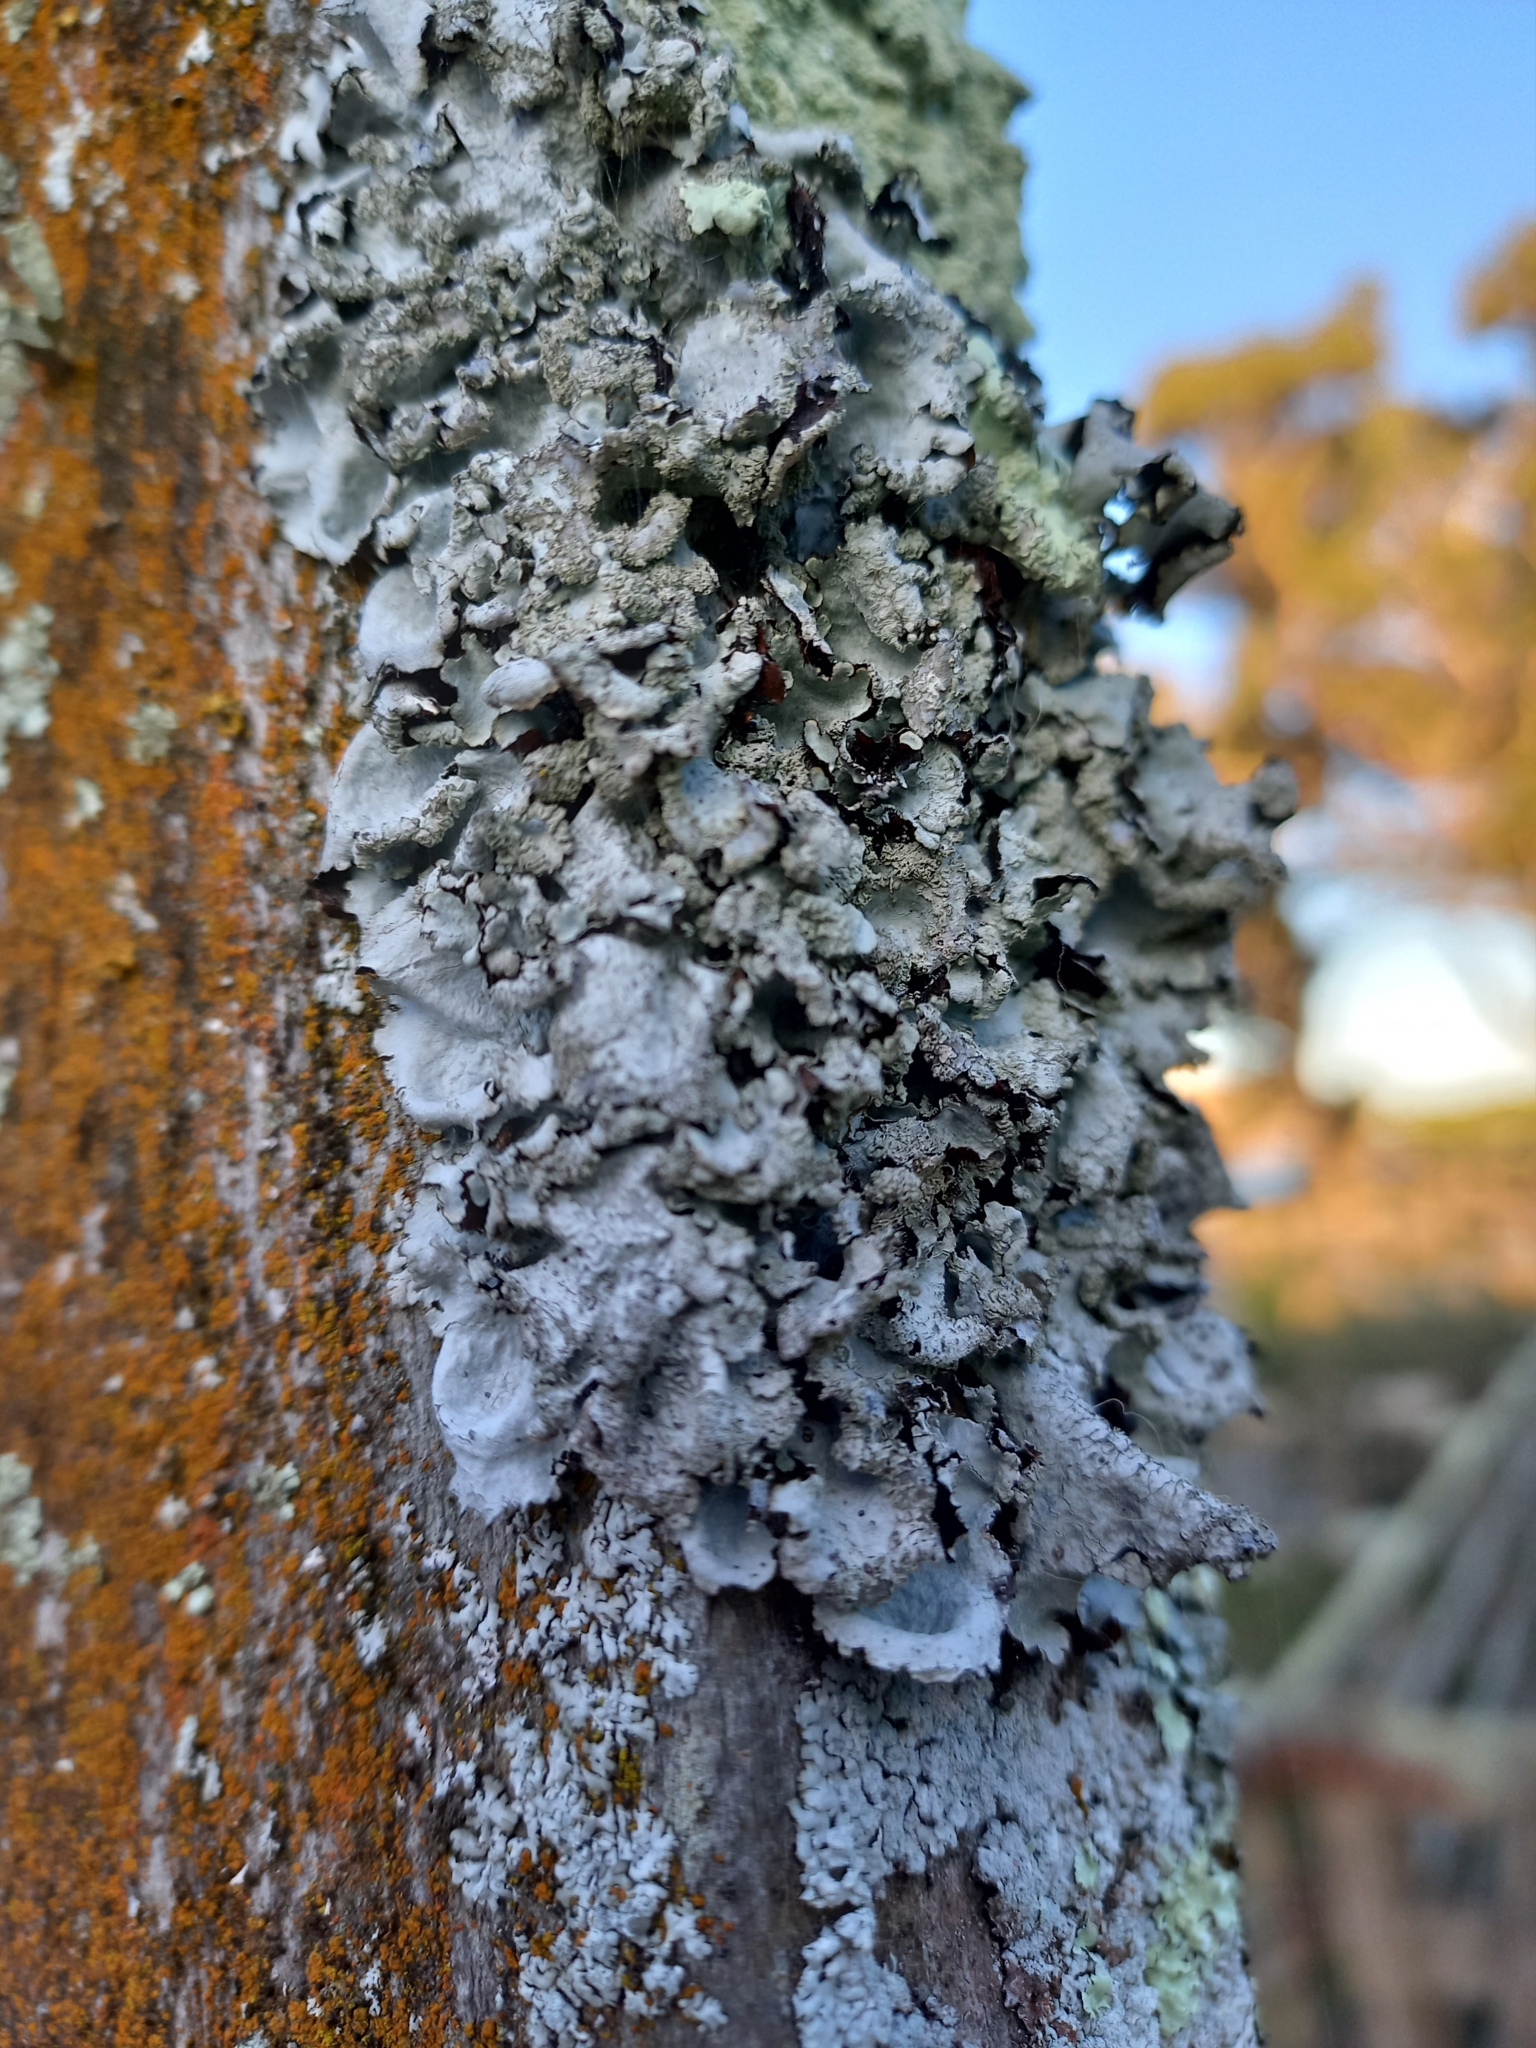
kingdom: Fungi
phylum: Ascomycota
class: Lecanoromycetes
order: Lecanorales
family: Parmeliaceae
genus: Parmotrema
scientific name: Parmotrema perlatum
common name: Black stone flower
